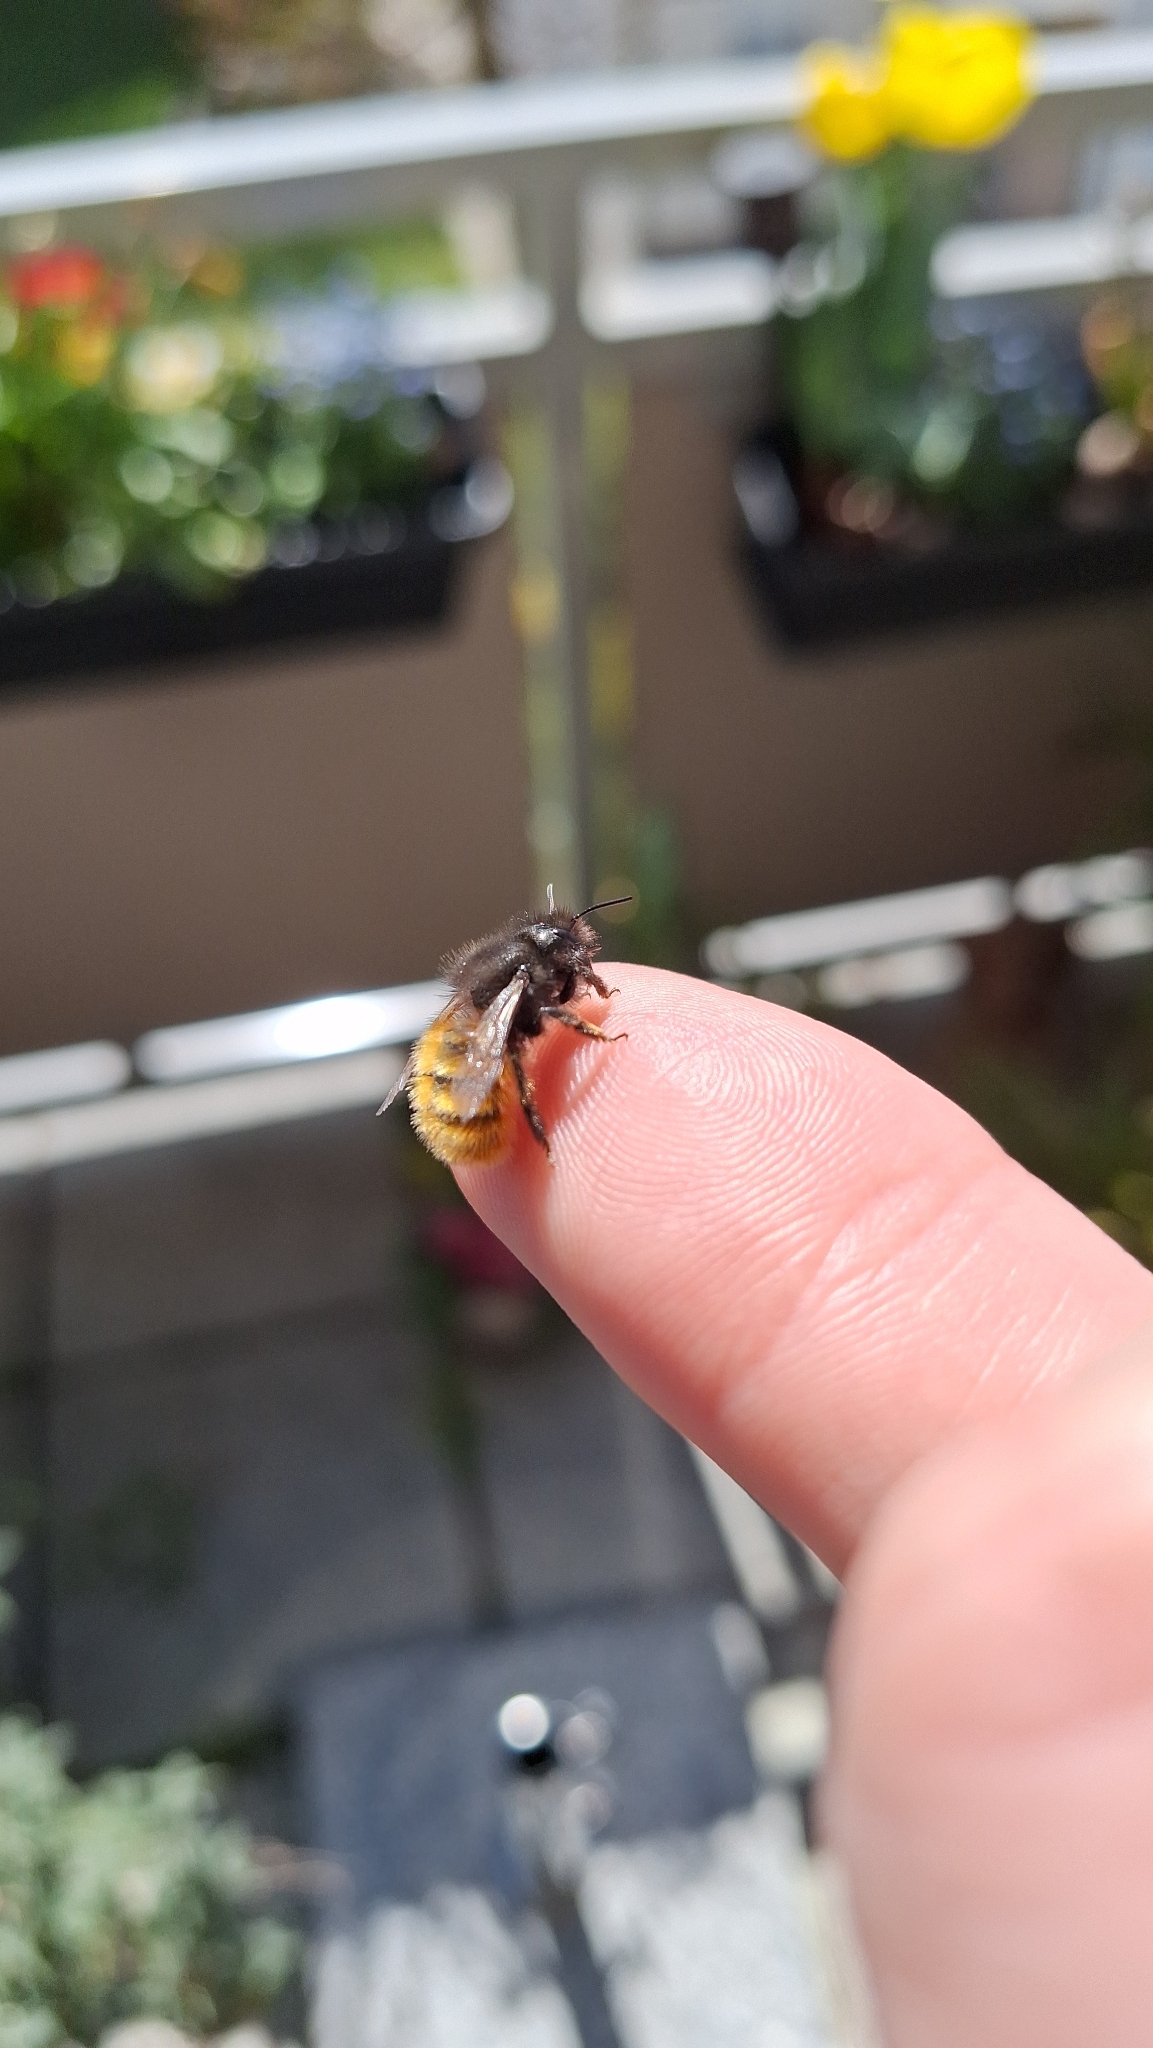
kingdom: Animalia
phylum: Arthropoda
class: Insecta
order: Hymenoptera
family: Megachilidae
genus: Osmia
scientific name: Osmia cornuta
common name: Mason bee
